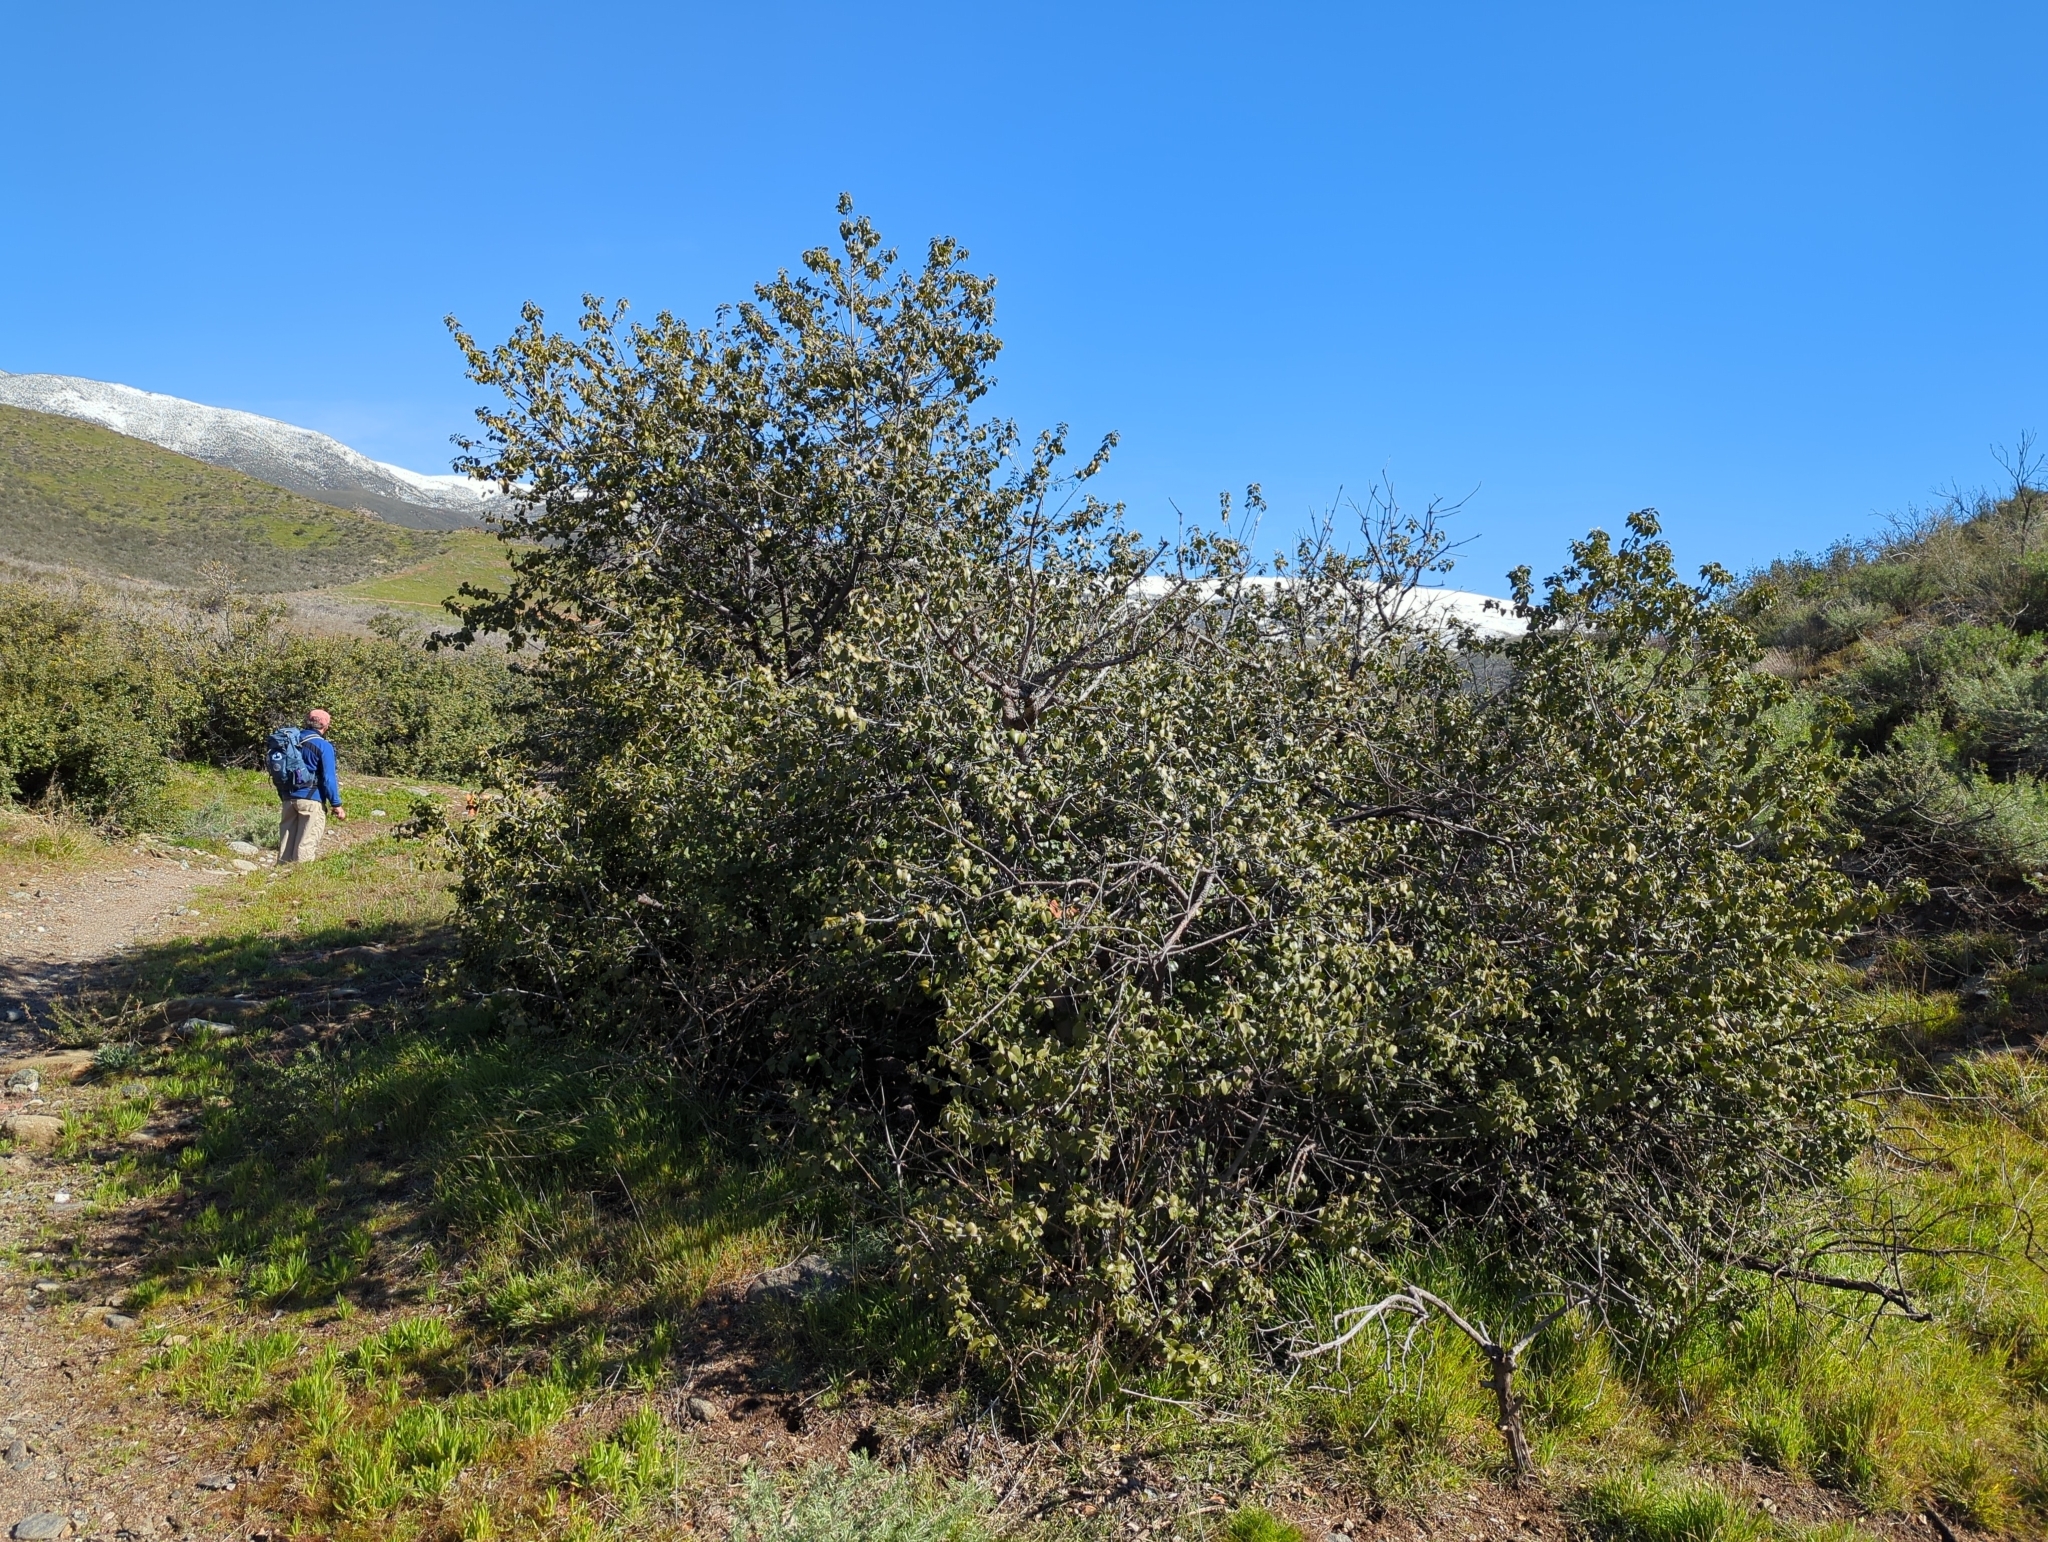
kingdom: Plantae
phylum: Tracheophyta
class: Magnoliopsida
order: Rosales
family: Rosaceae
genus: Prunus
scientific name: Prunus ilicifolia
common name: Hollyleaf cherry
